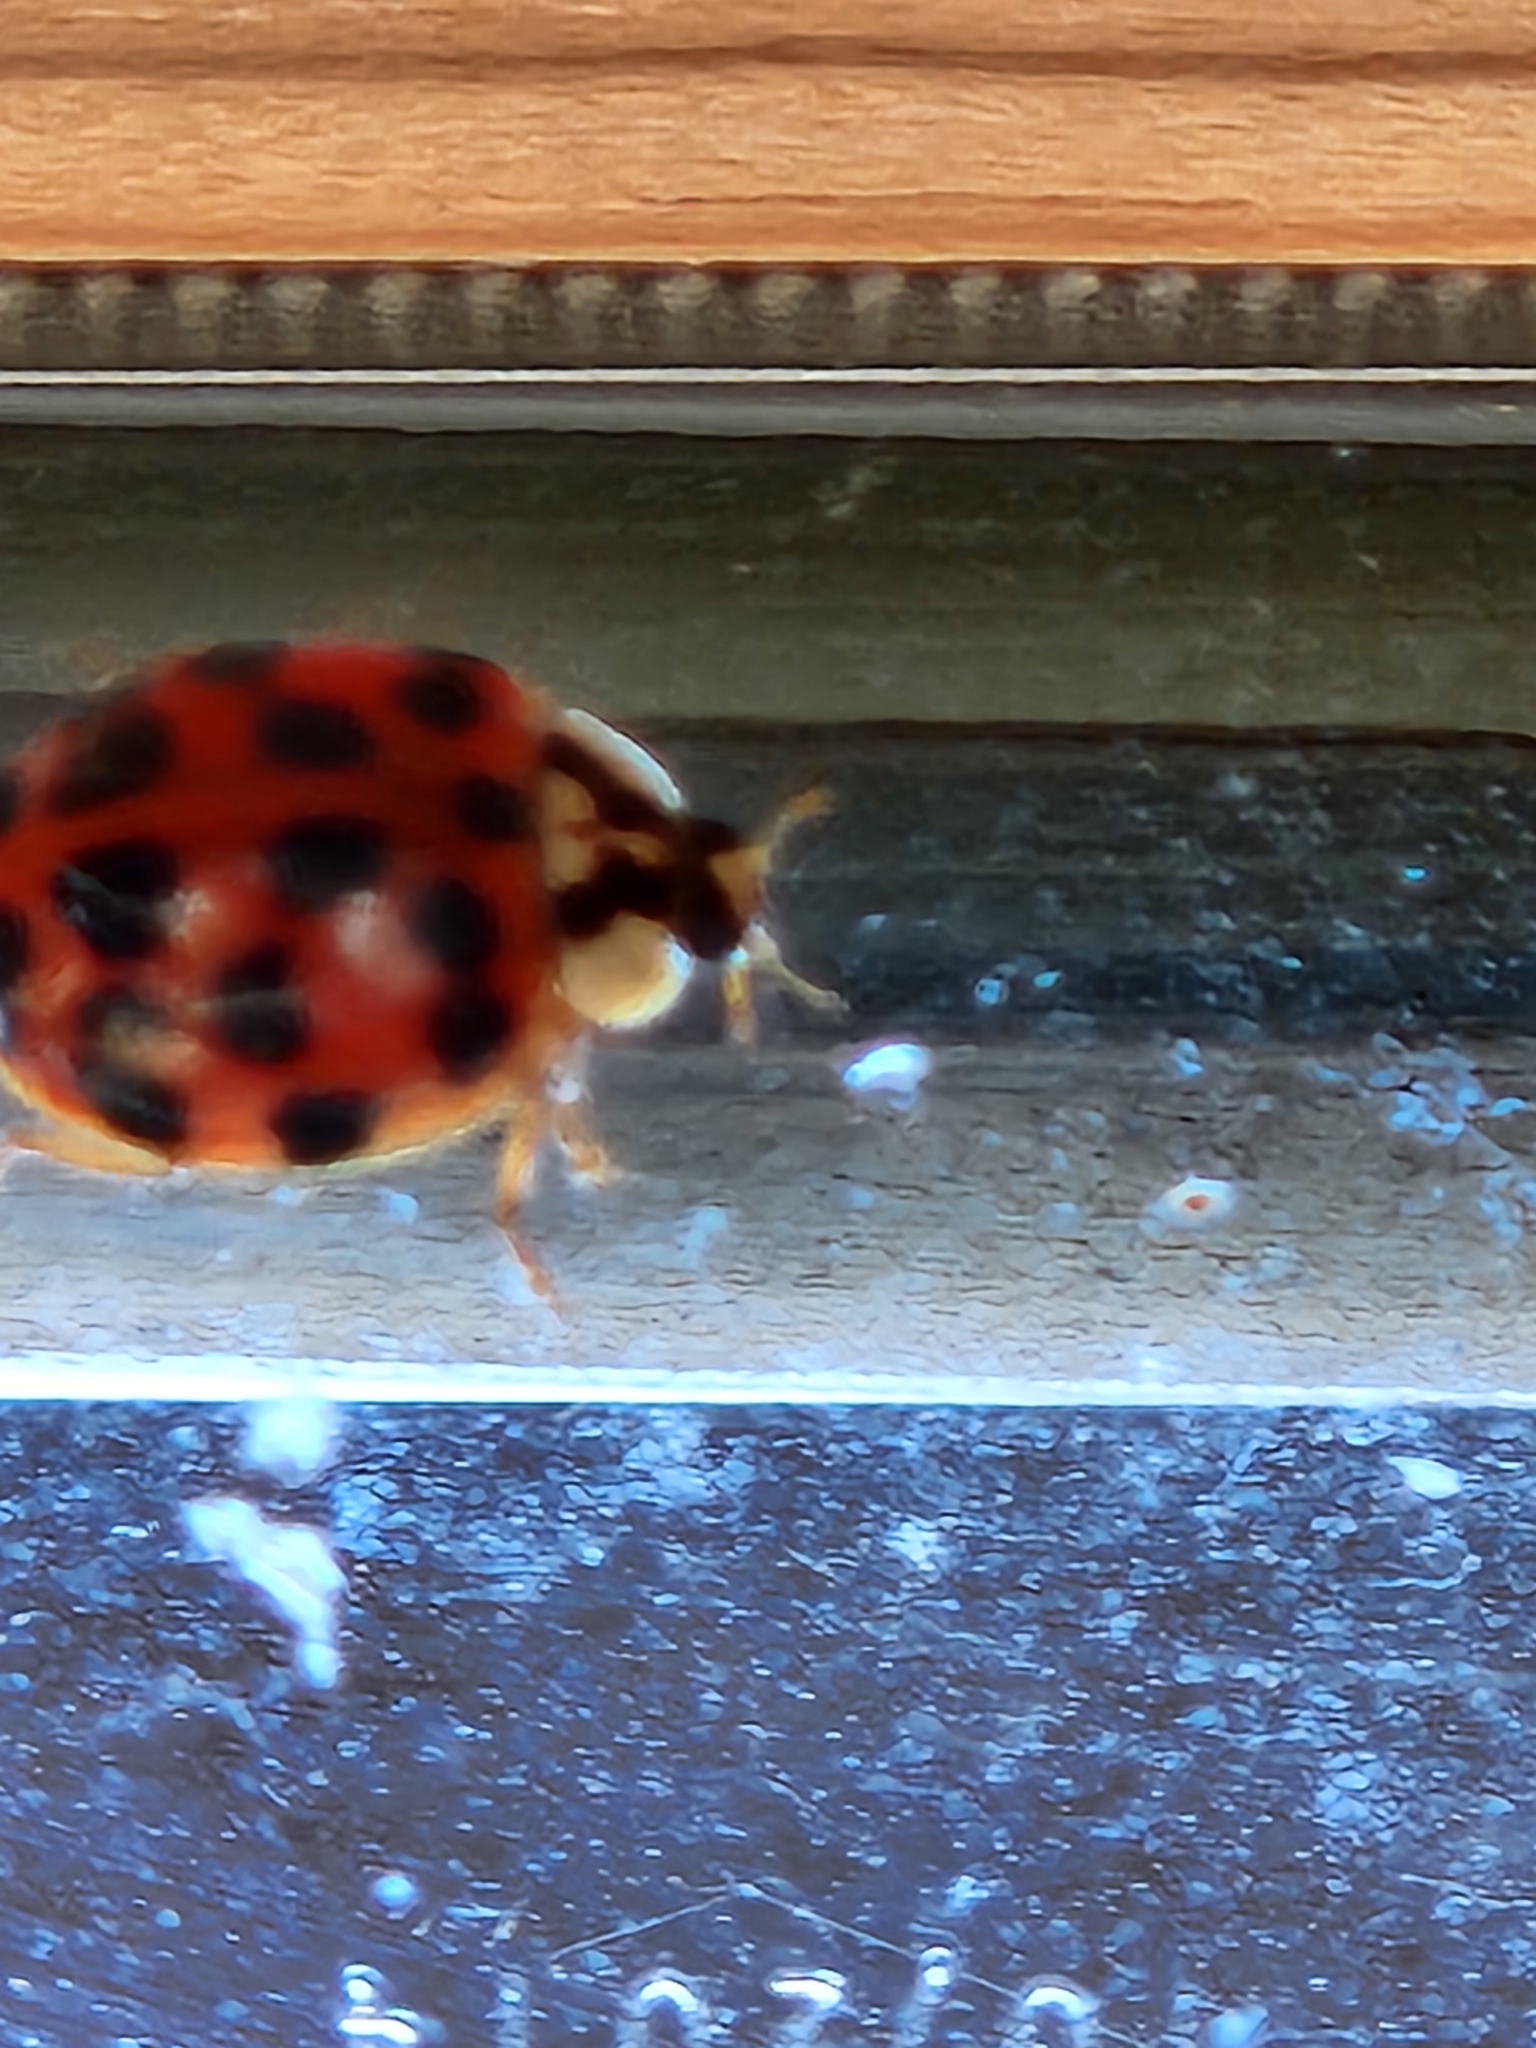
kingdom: Animalia
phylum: Arthropoda
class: Insecta
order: Coleoptera
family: Coccinellidae
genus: Harmonia
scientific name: Harmonia axyridis
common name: Harlequin ladybird
